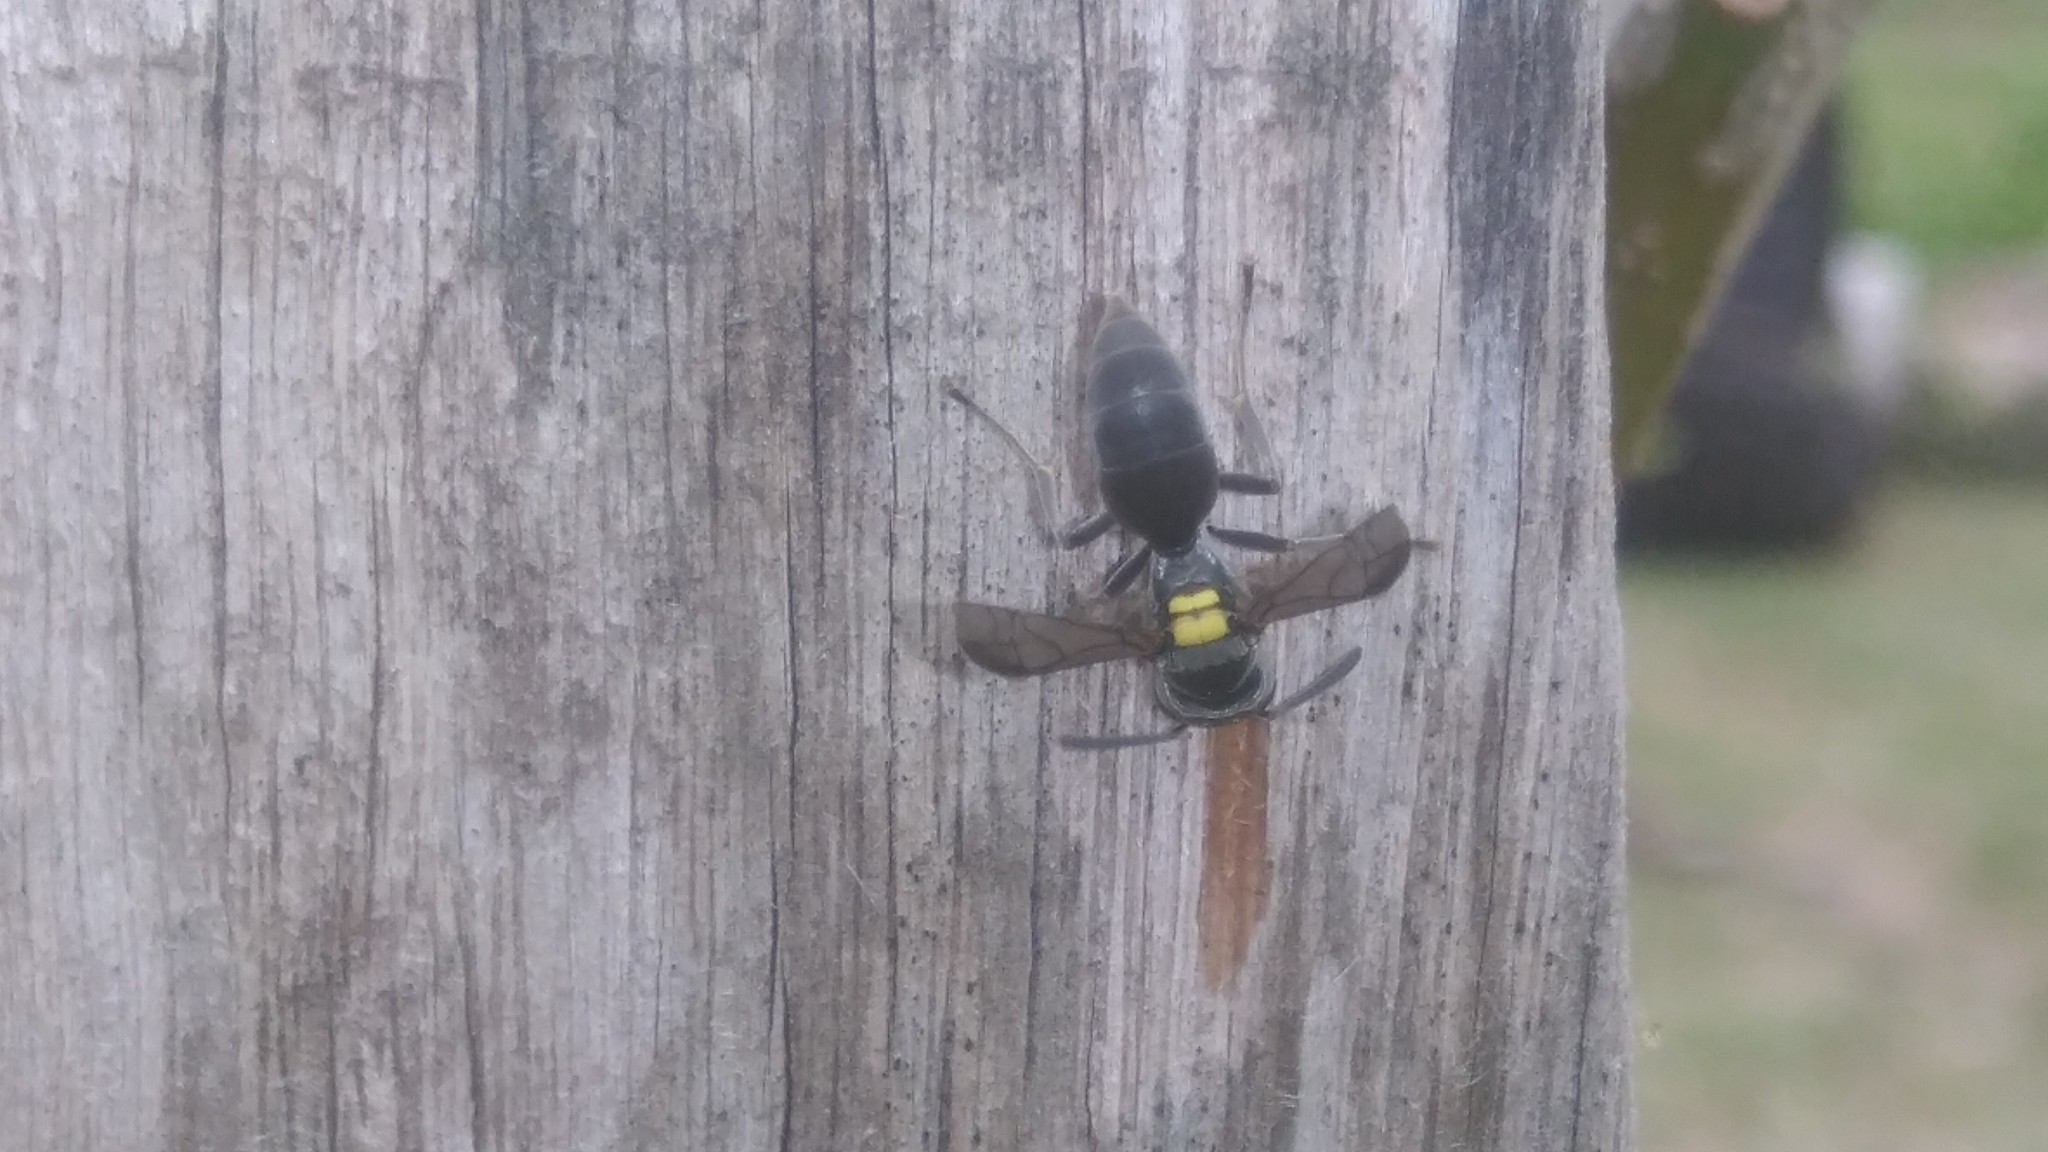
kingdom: Animalia
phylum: Arthropoda
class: Insecta
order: Hymenoptera
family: Eumenidae
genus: Polybia
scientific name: Polybia scutellaris
